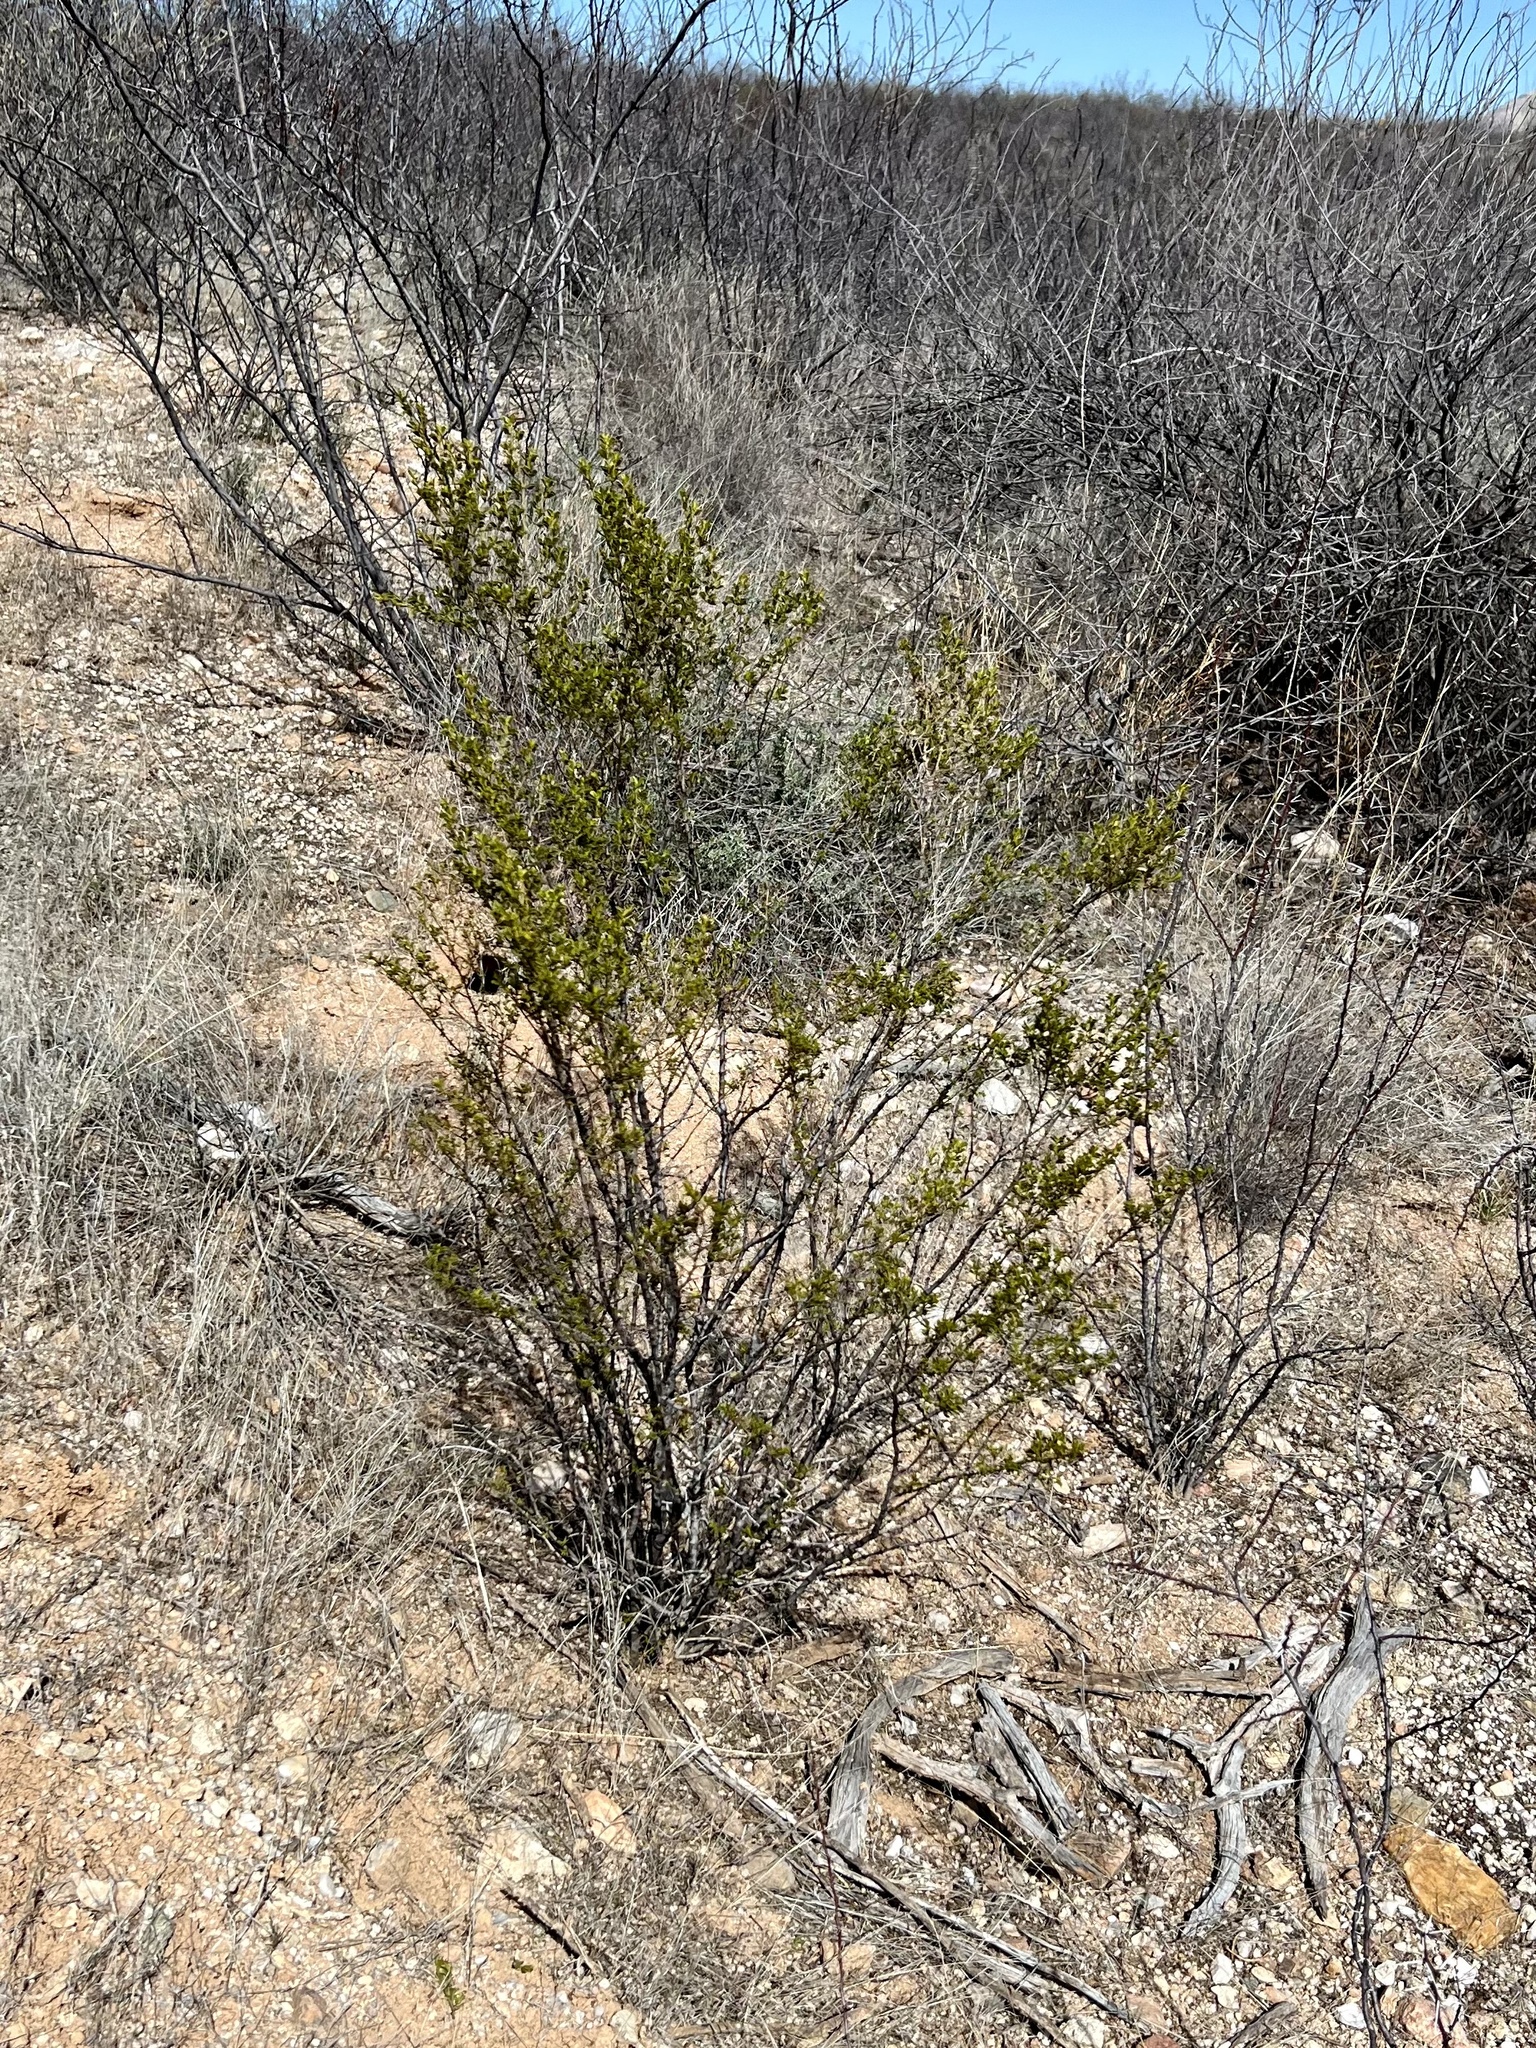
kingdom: Plantae
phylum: Tracheophyta
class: Magnoliopsida
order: Zygophyllales
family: Zygophyllaceae
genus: Larrea
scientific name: Larrea tridentata
